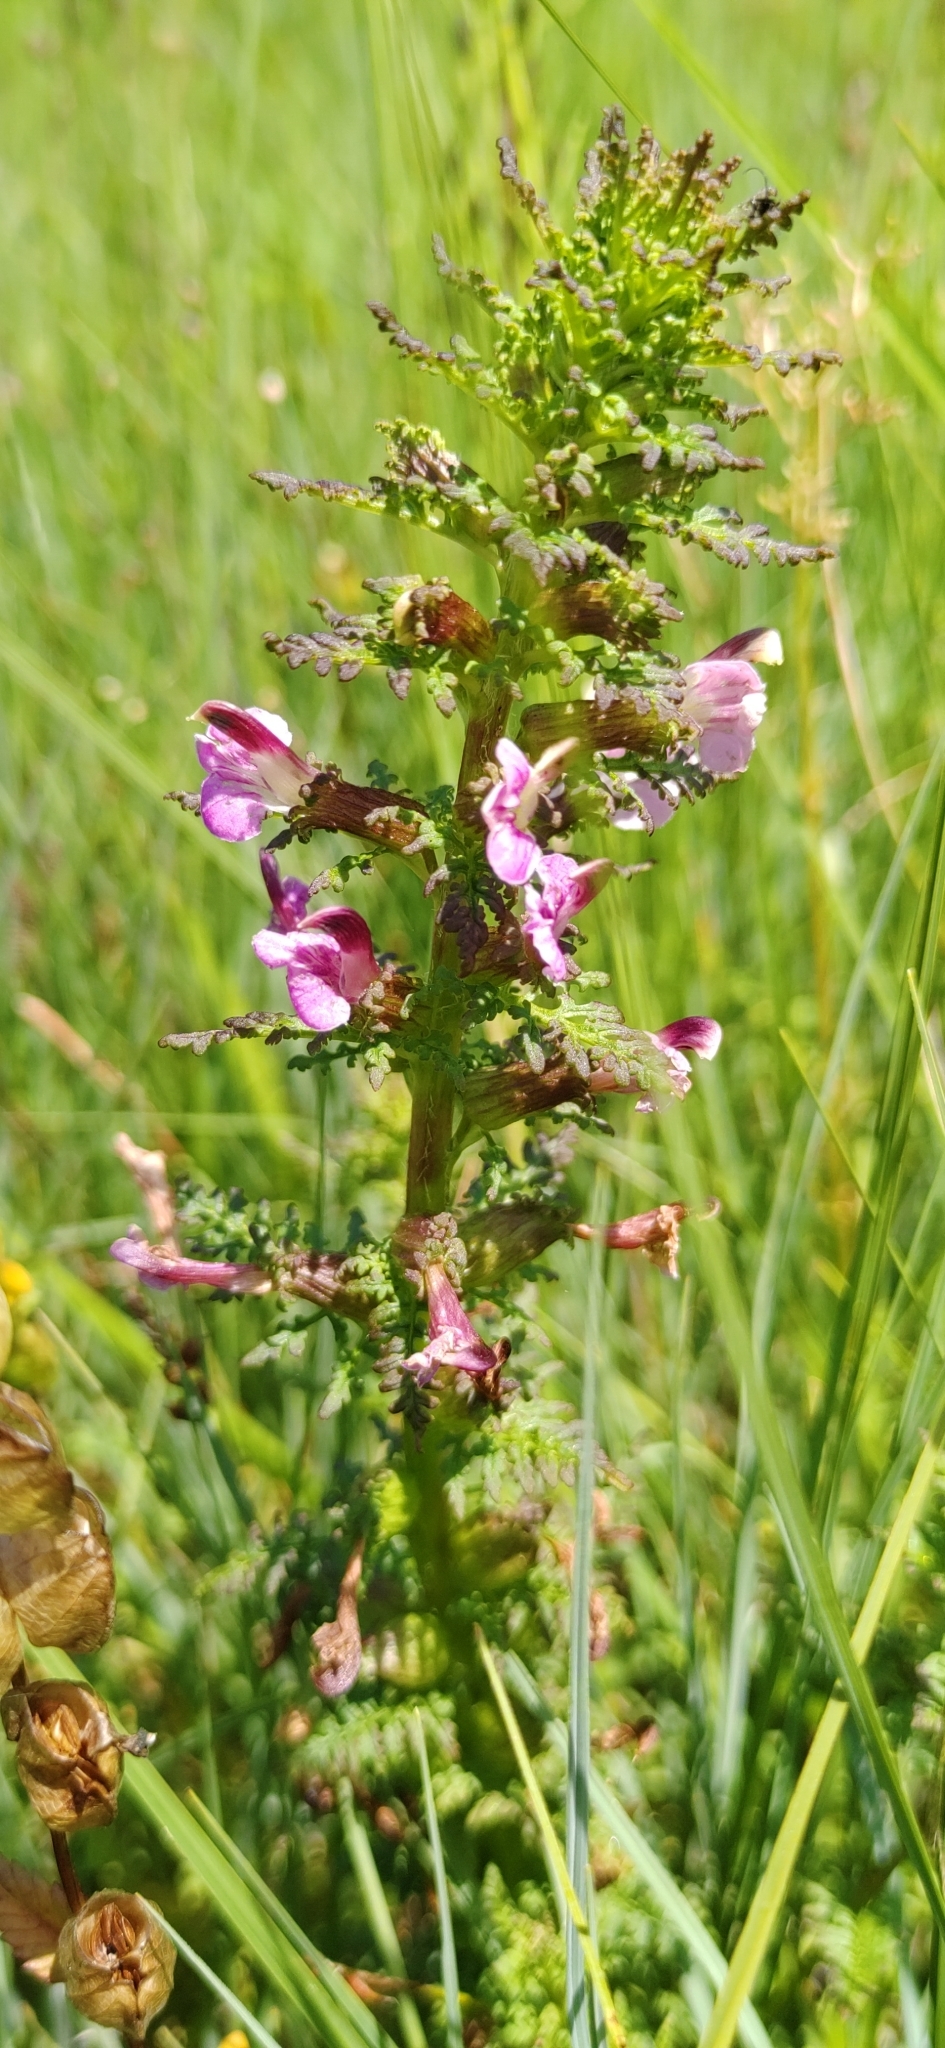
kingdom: Plantae
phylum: Tracheophyta
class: Magnoliopsida
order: Lamiales
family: Orobanchaceae
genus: Pedicularis
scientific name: Pedicularis palustris
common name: Marsh lousewort
